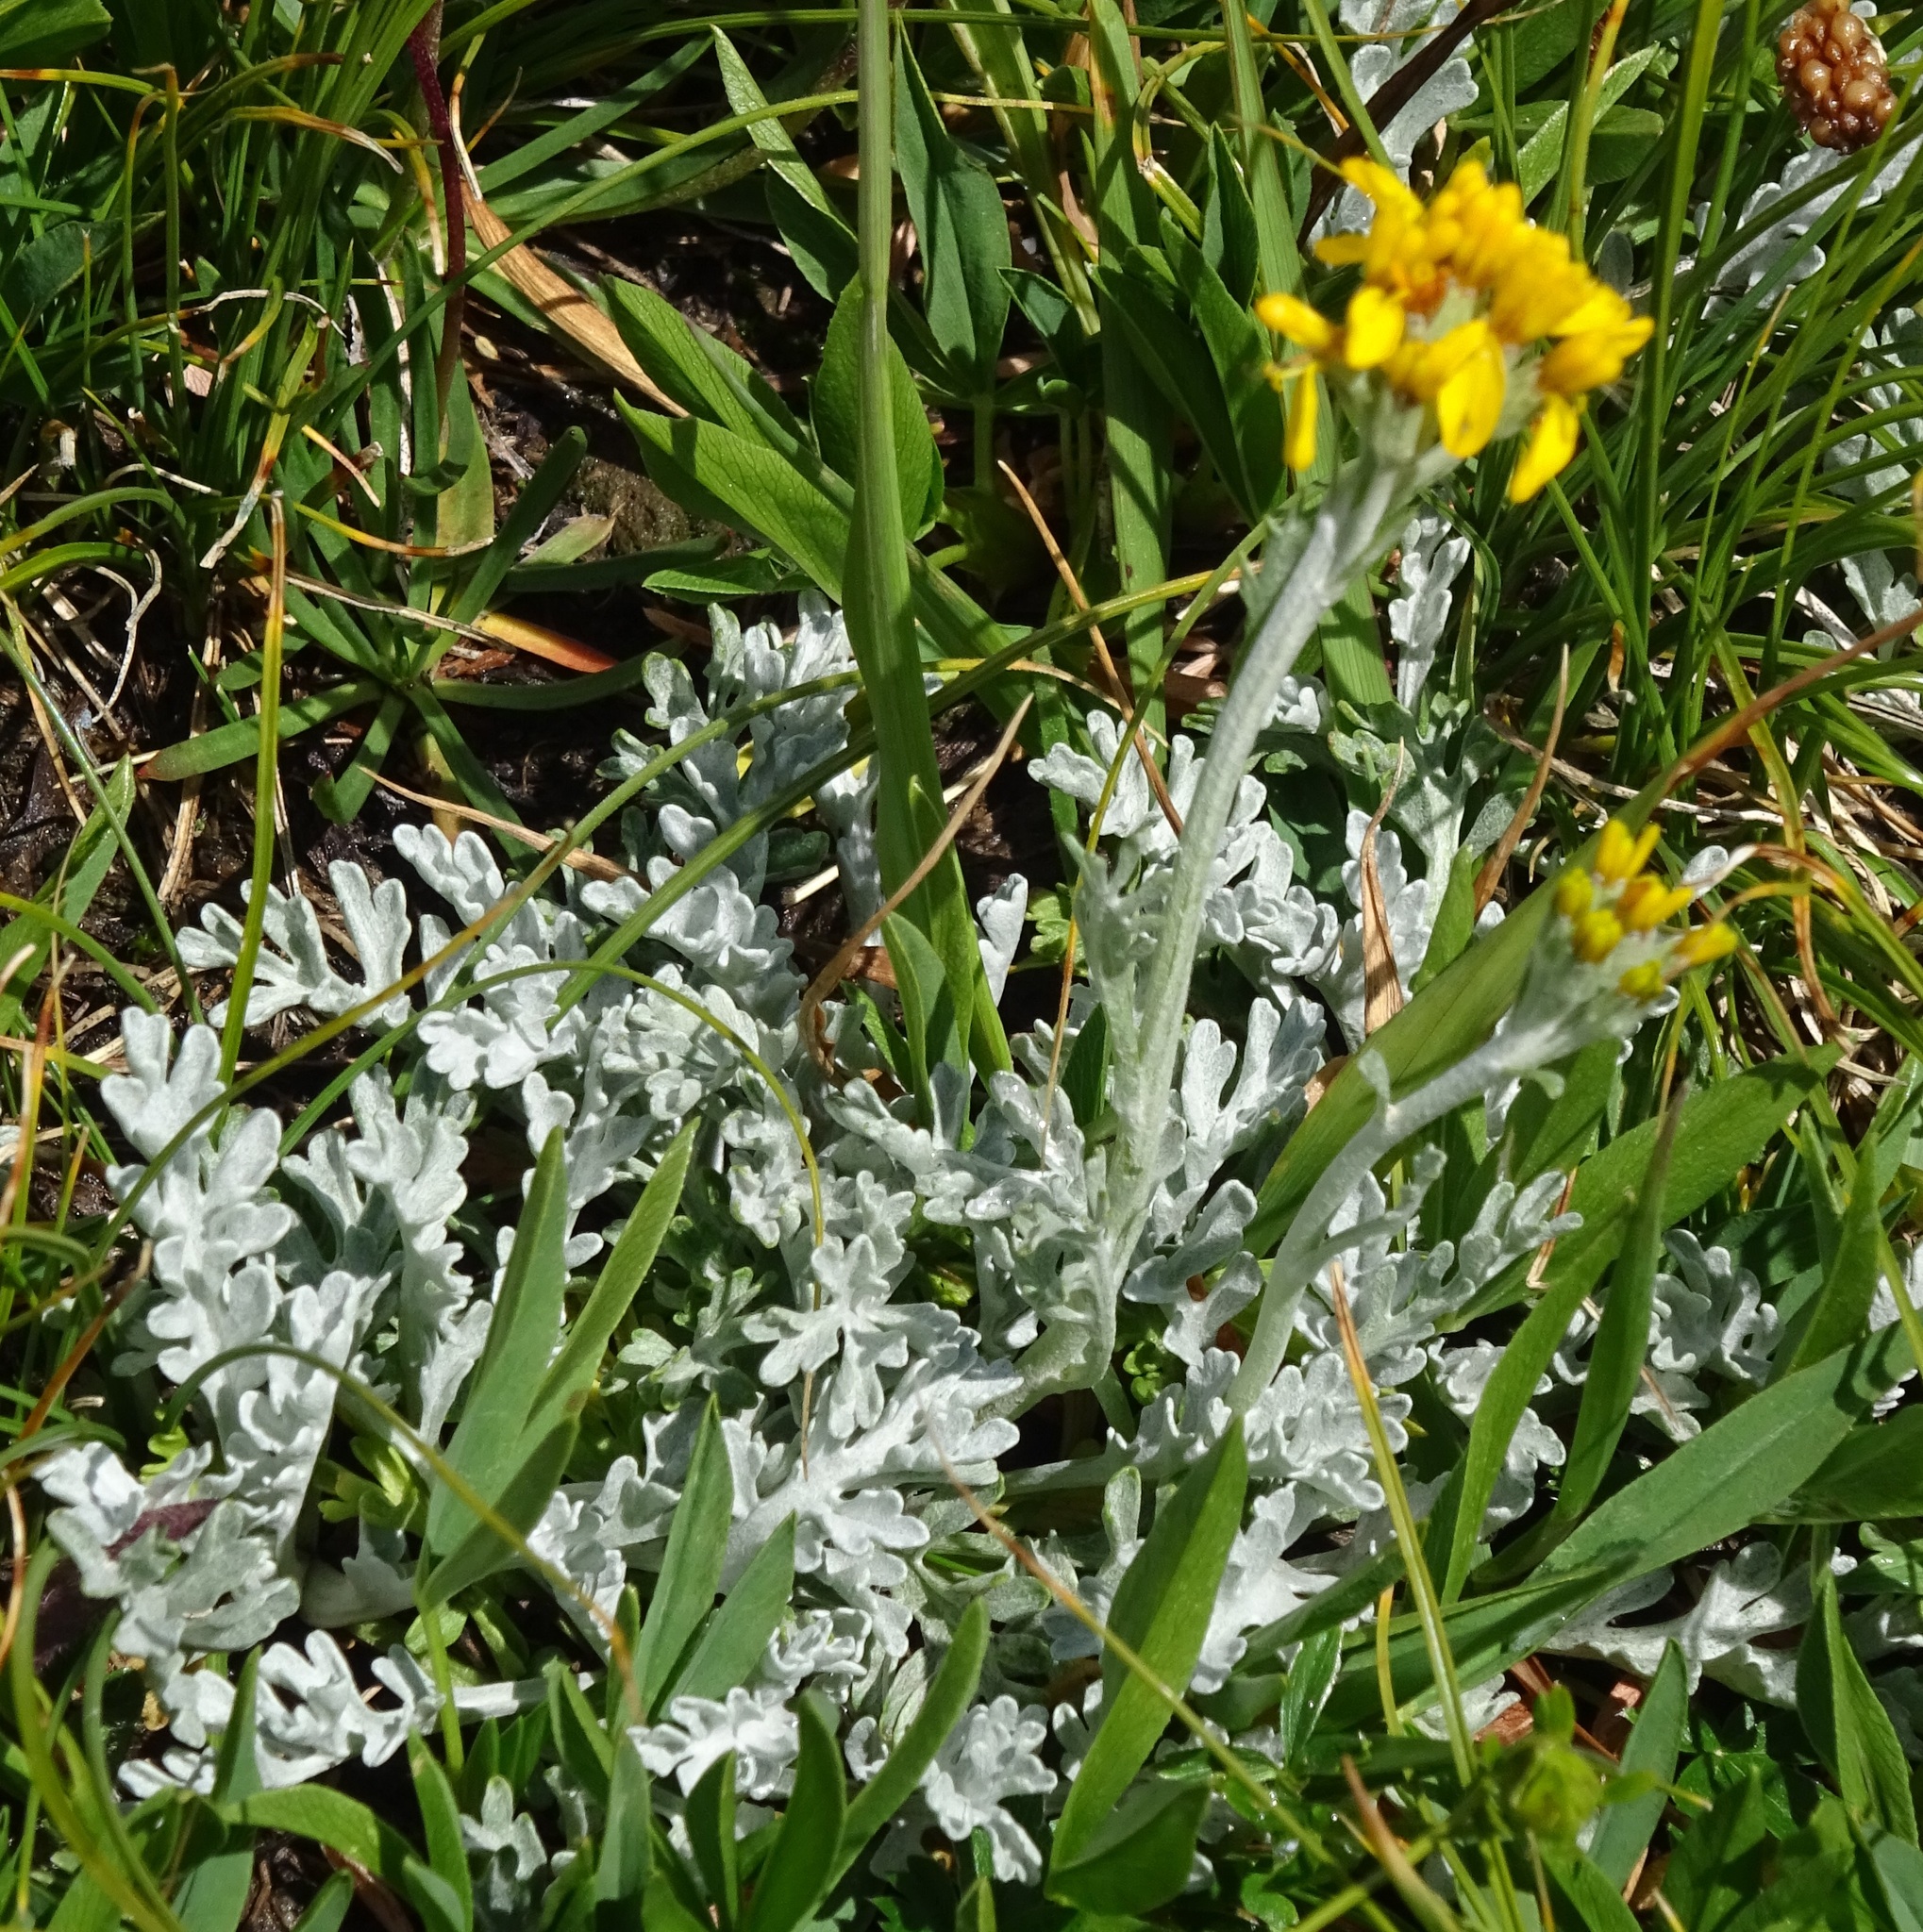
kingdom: Plantae
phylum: Tracheophyta
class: Magnoliopsida
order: Asterales
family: Asteraceae
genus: Jacobaea
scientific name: Jacobaea incana
